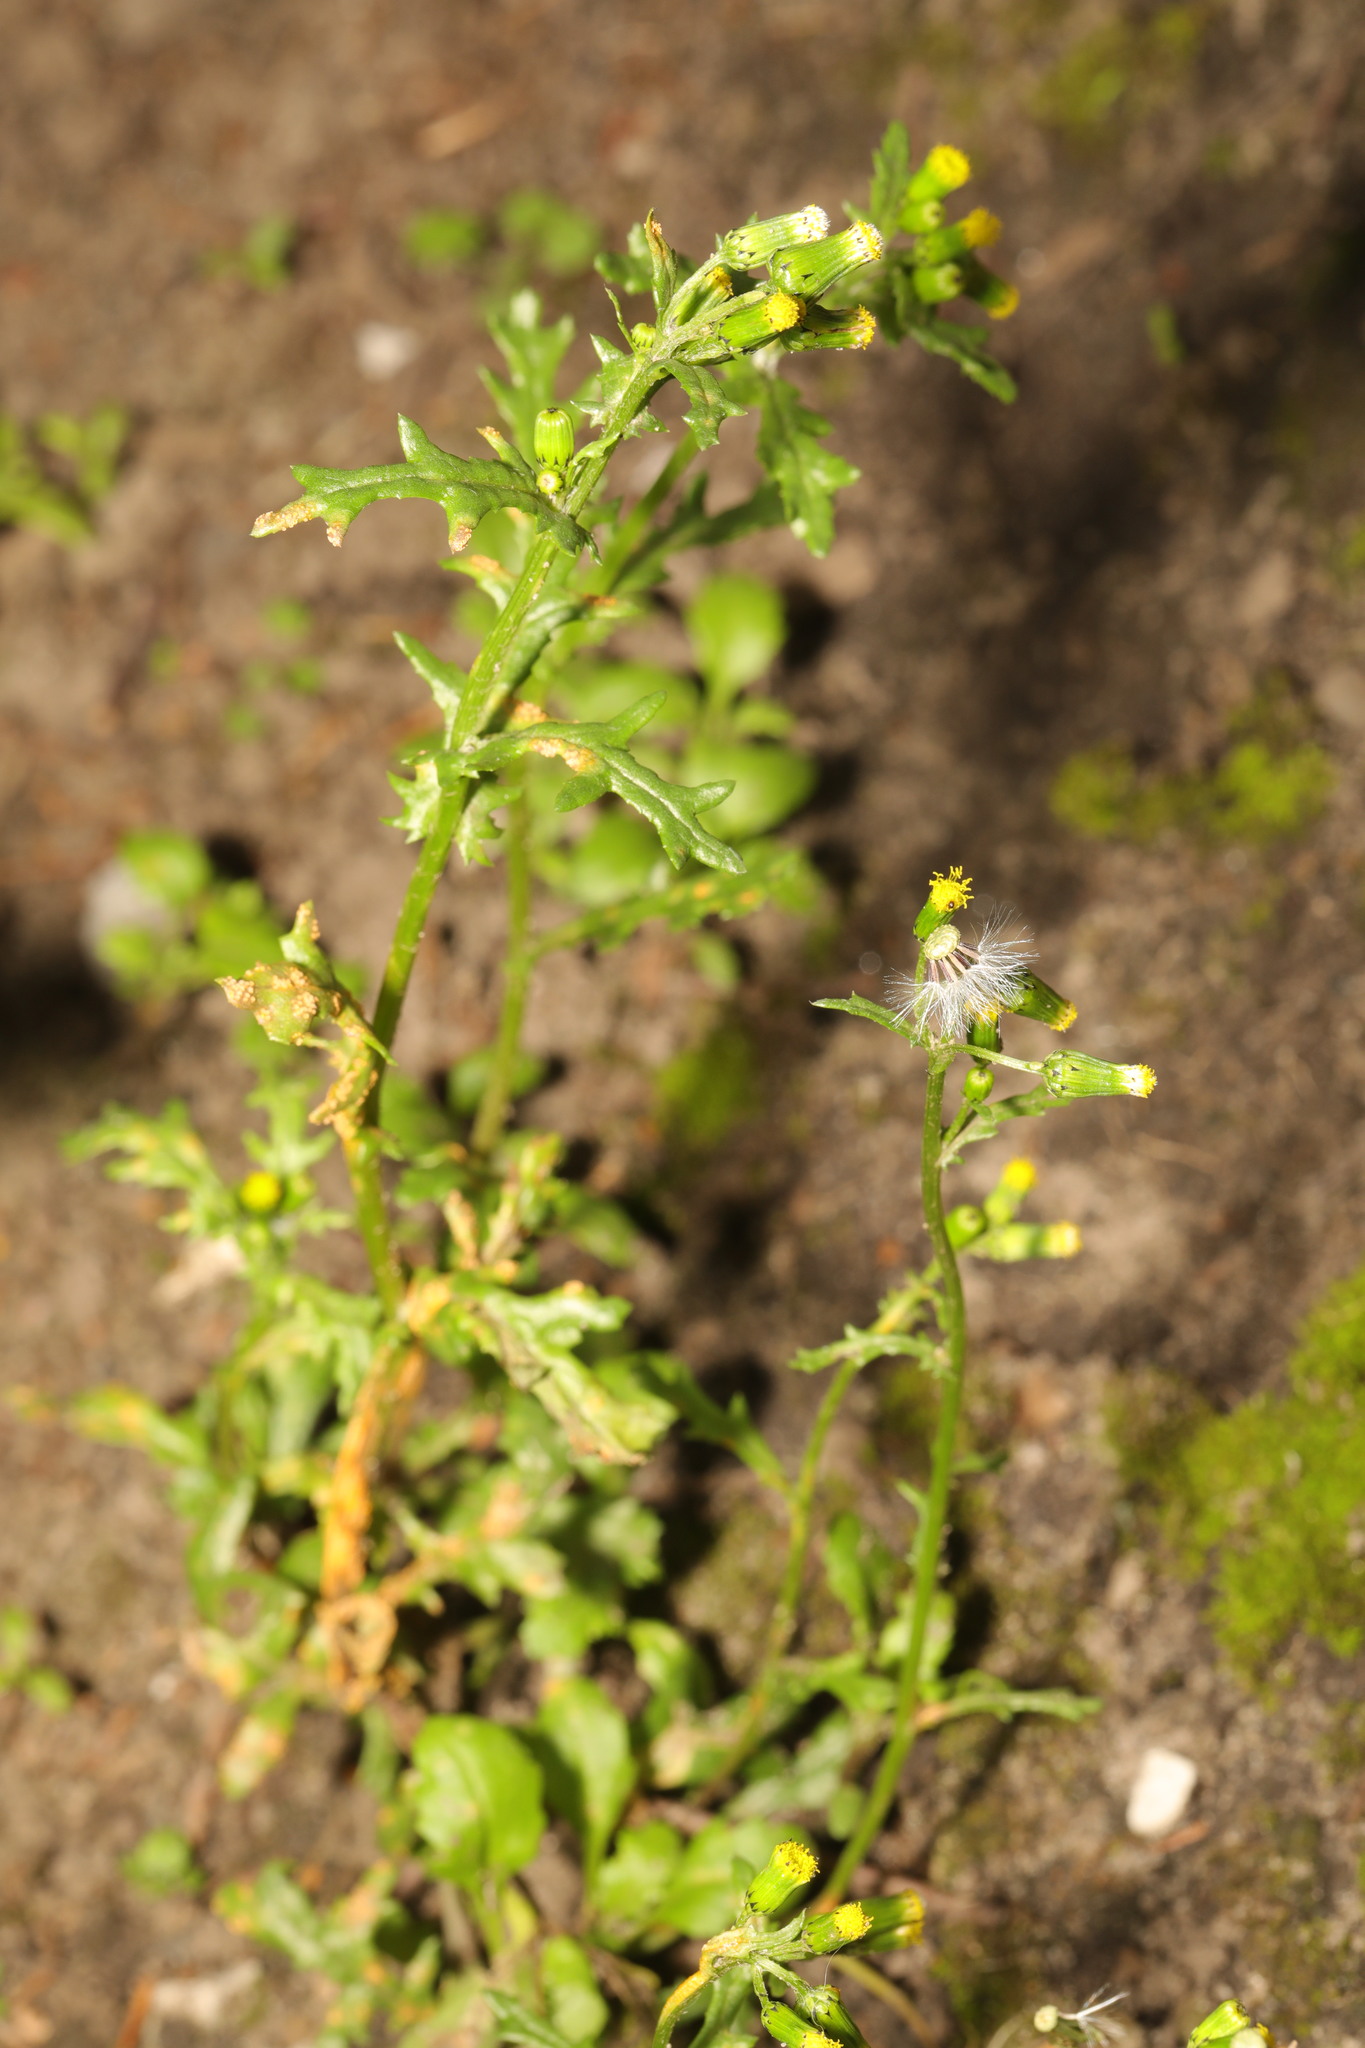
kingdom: Plantae
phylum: Tracheophyta
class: Magnoliopsida
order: Asterales
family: Asteraceae
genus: Senecio
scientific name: Senecio vulgaris
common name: Old-man-in-the-spring
